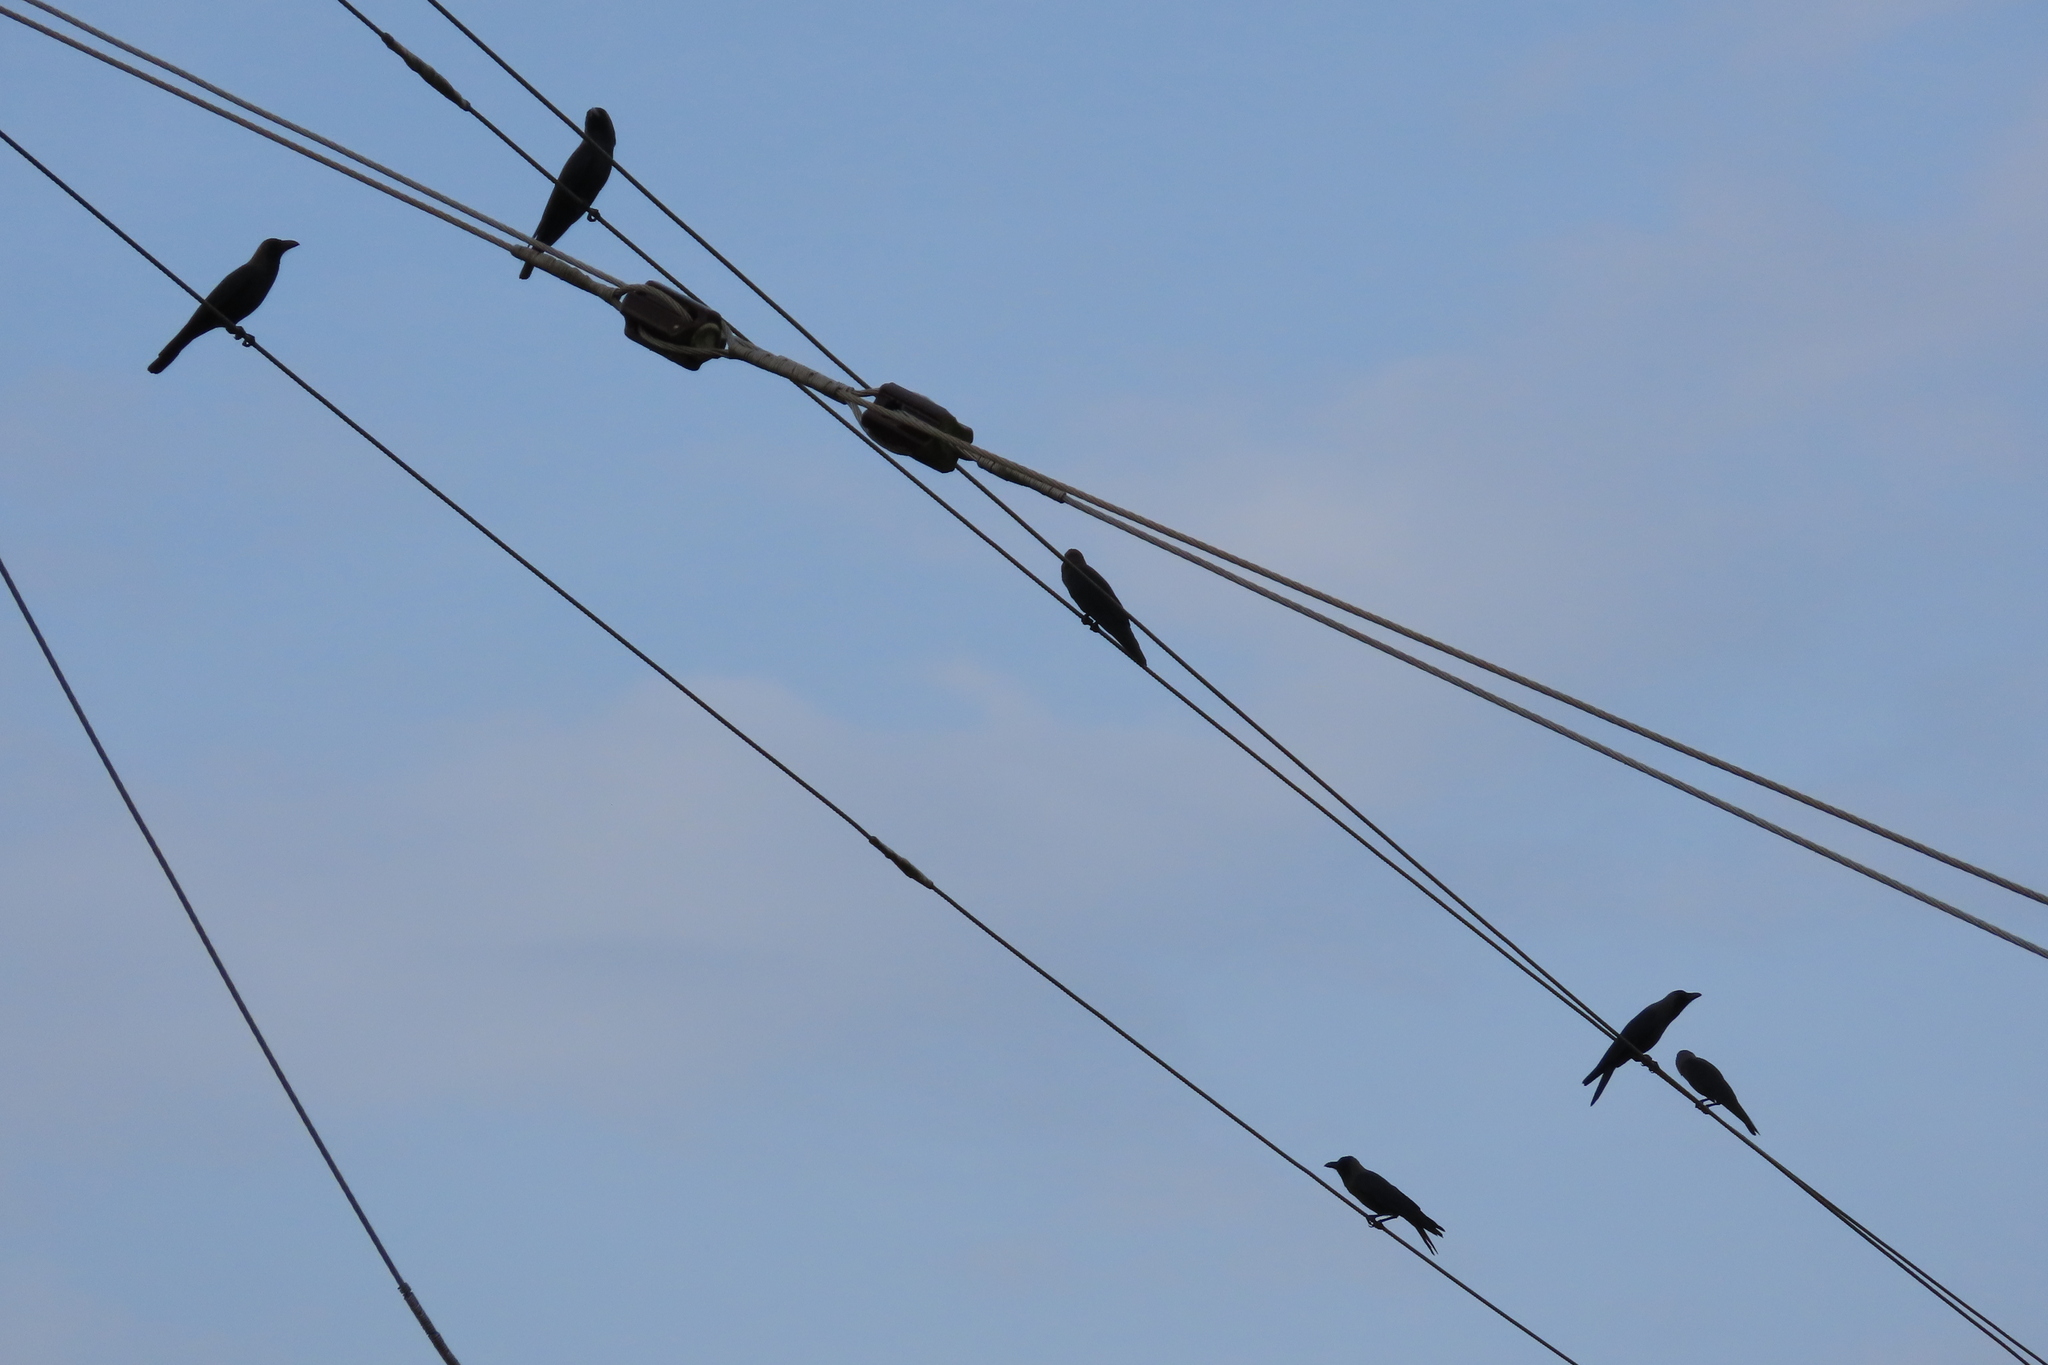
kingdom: Animalia
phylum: Chordata
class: Aves
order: Passeriformes
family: Corvidae
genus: Corvus
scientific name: Corvus splendens
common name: House crow
